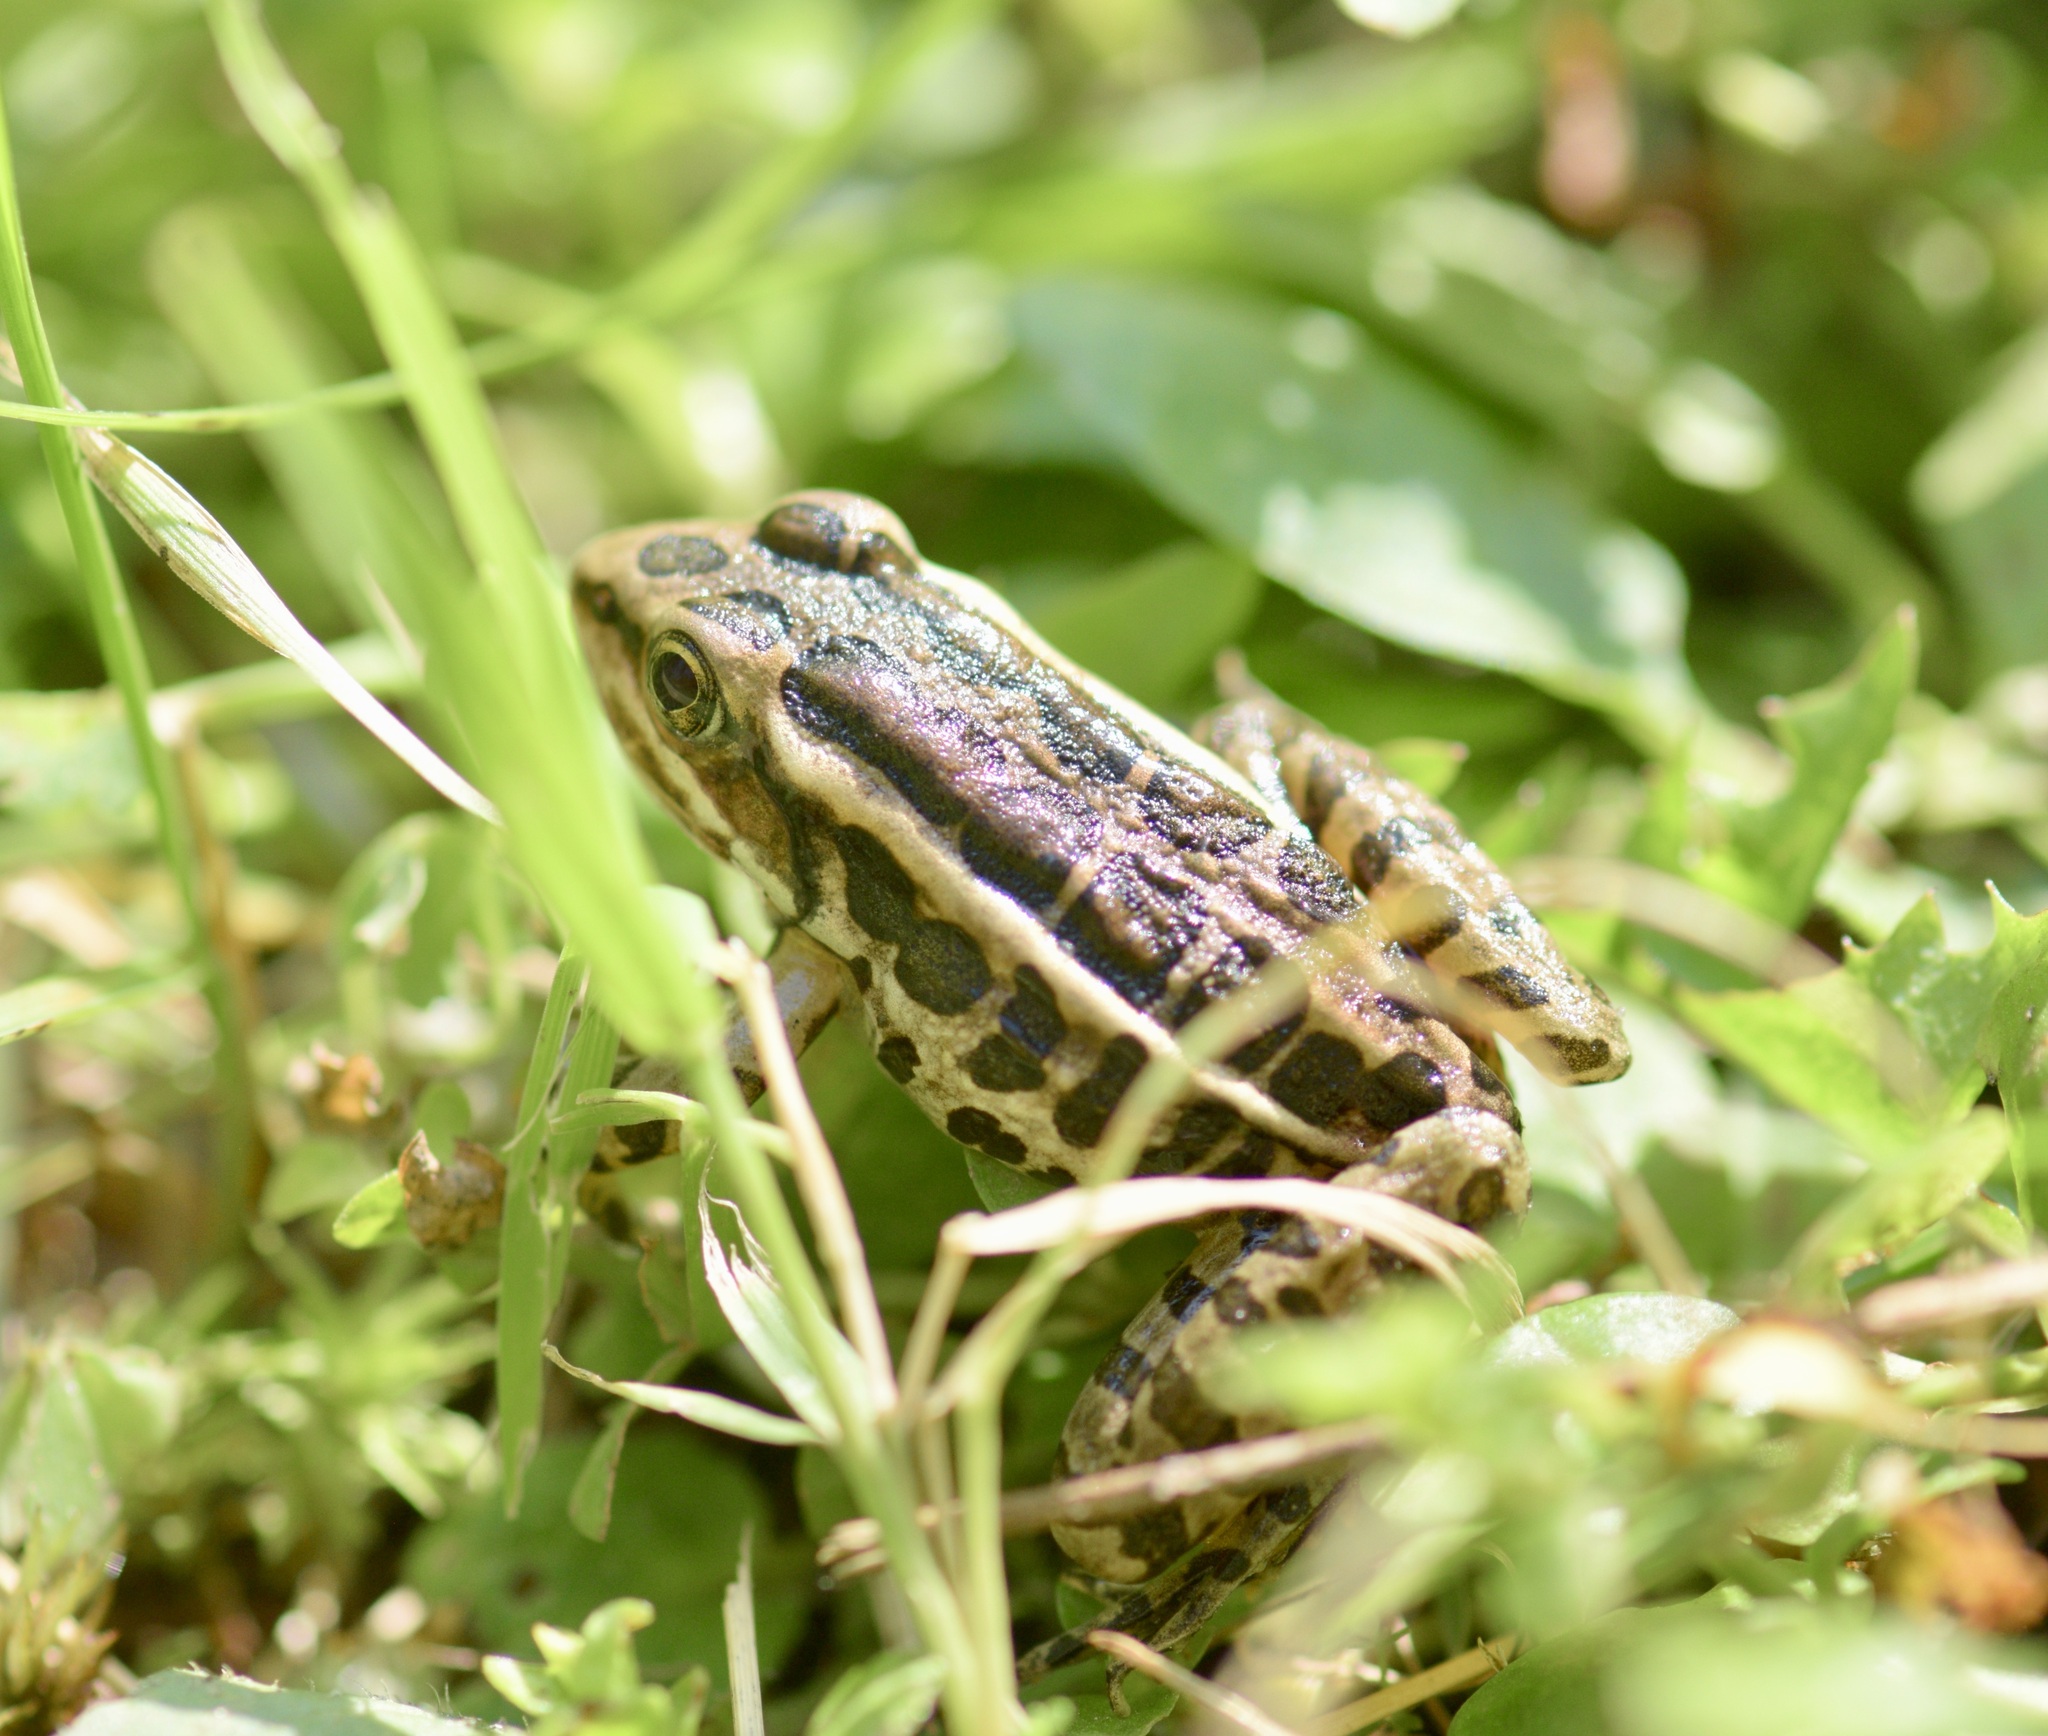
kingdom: Animalia
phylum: Chordata
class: Amphibia
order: Anura
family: Ranidae
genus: Lithobates
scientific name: Lithobates palustris
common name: Pickerel frog
